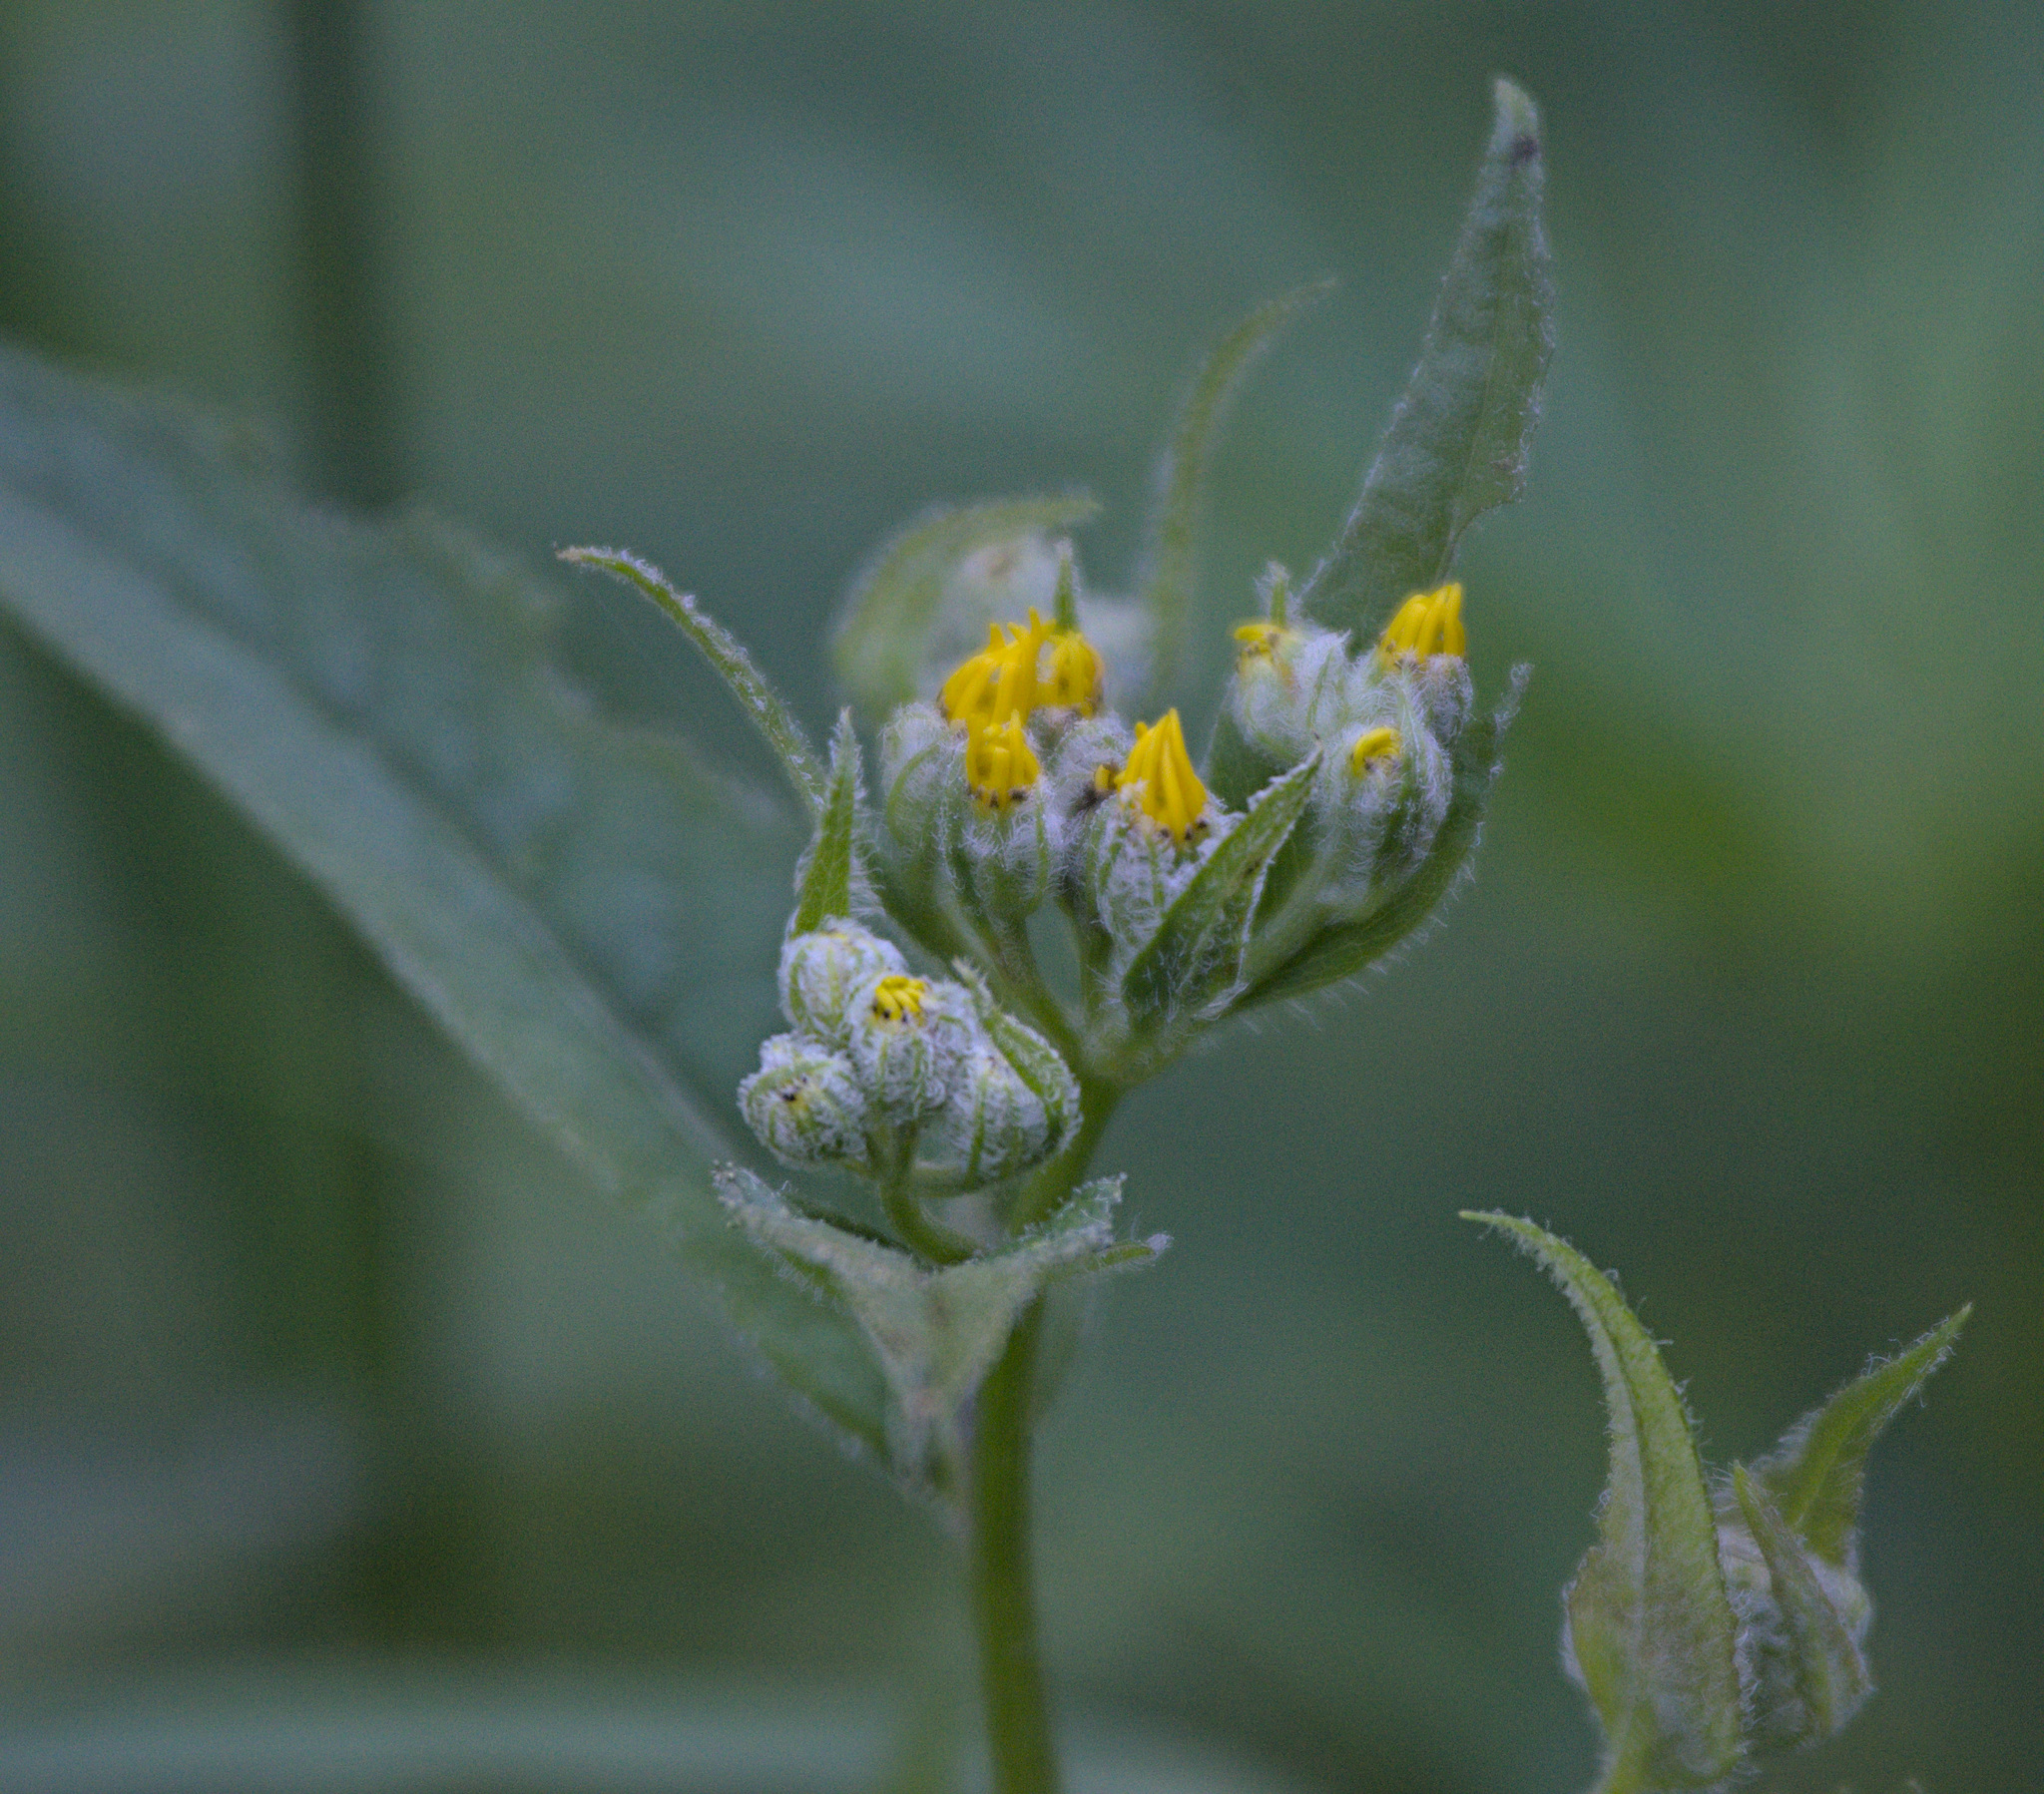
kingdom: Plantae
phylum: Tracheophyta
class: Magnoliopsida
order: Asterales
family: Asteraceae
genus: Senecio
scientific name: Senecio nemorensis
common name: Alpine ragwort
